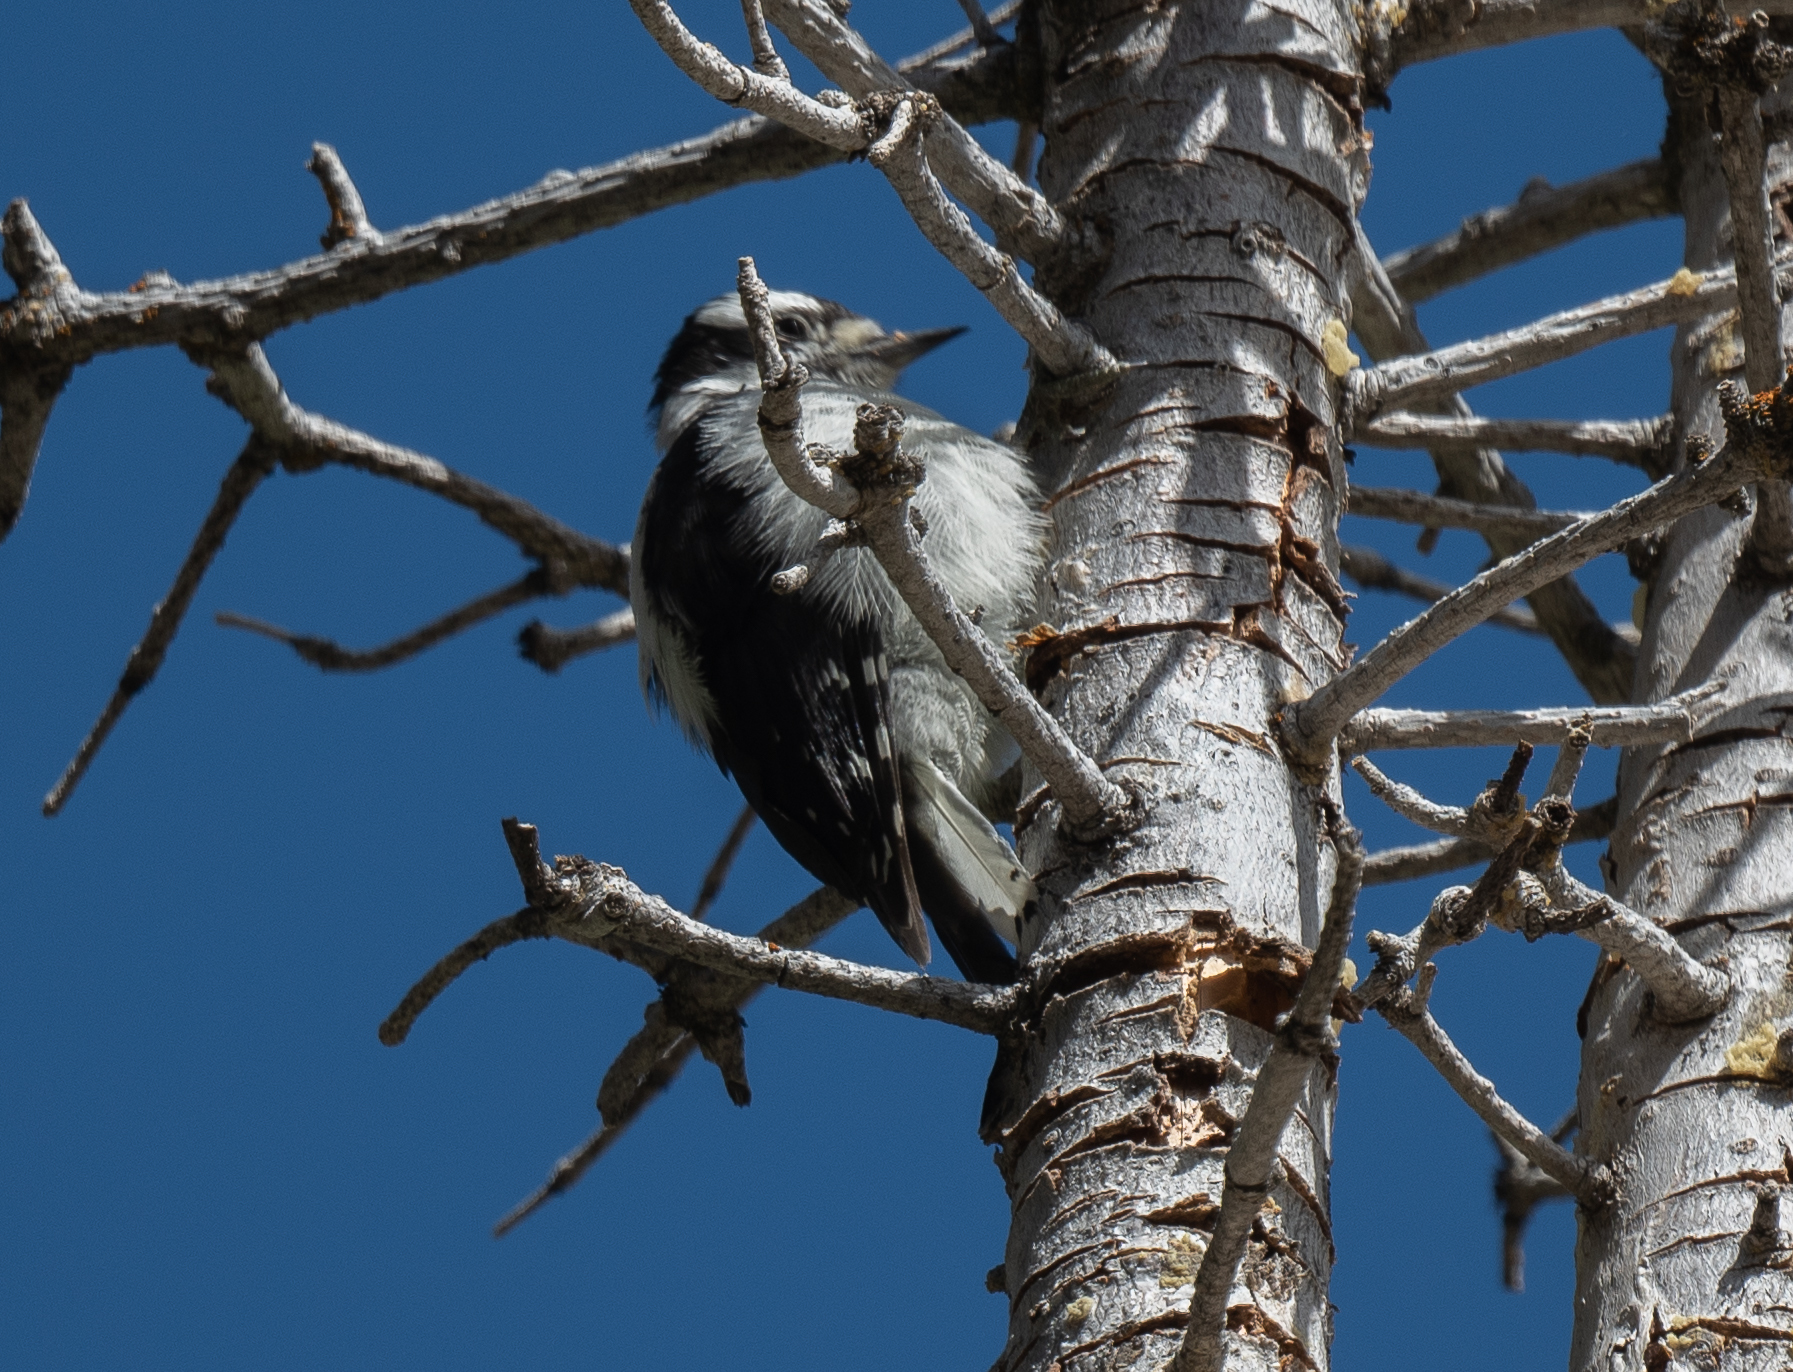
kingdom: Animalia
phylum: Chordata
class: Aves
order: Piciformes
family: Picidae
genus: Dryobates
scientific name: Dryobates pubescens
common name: Downy woodpecker
